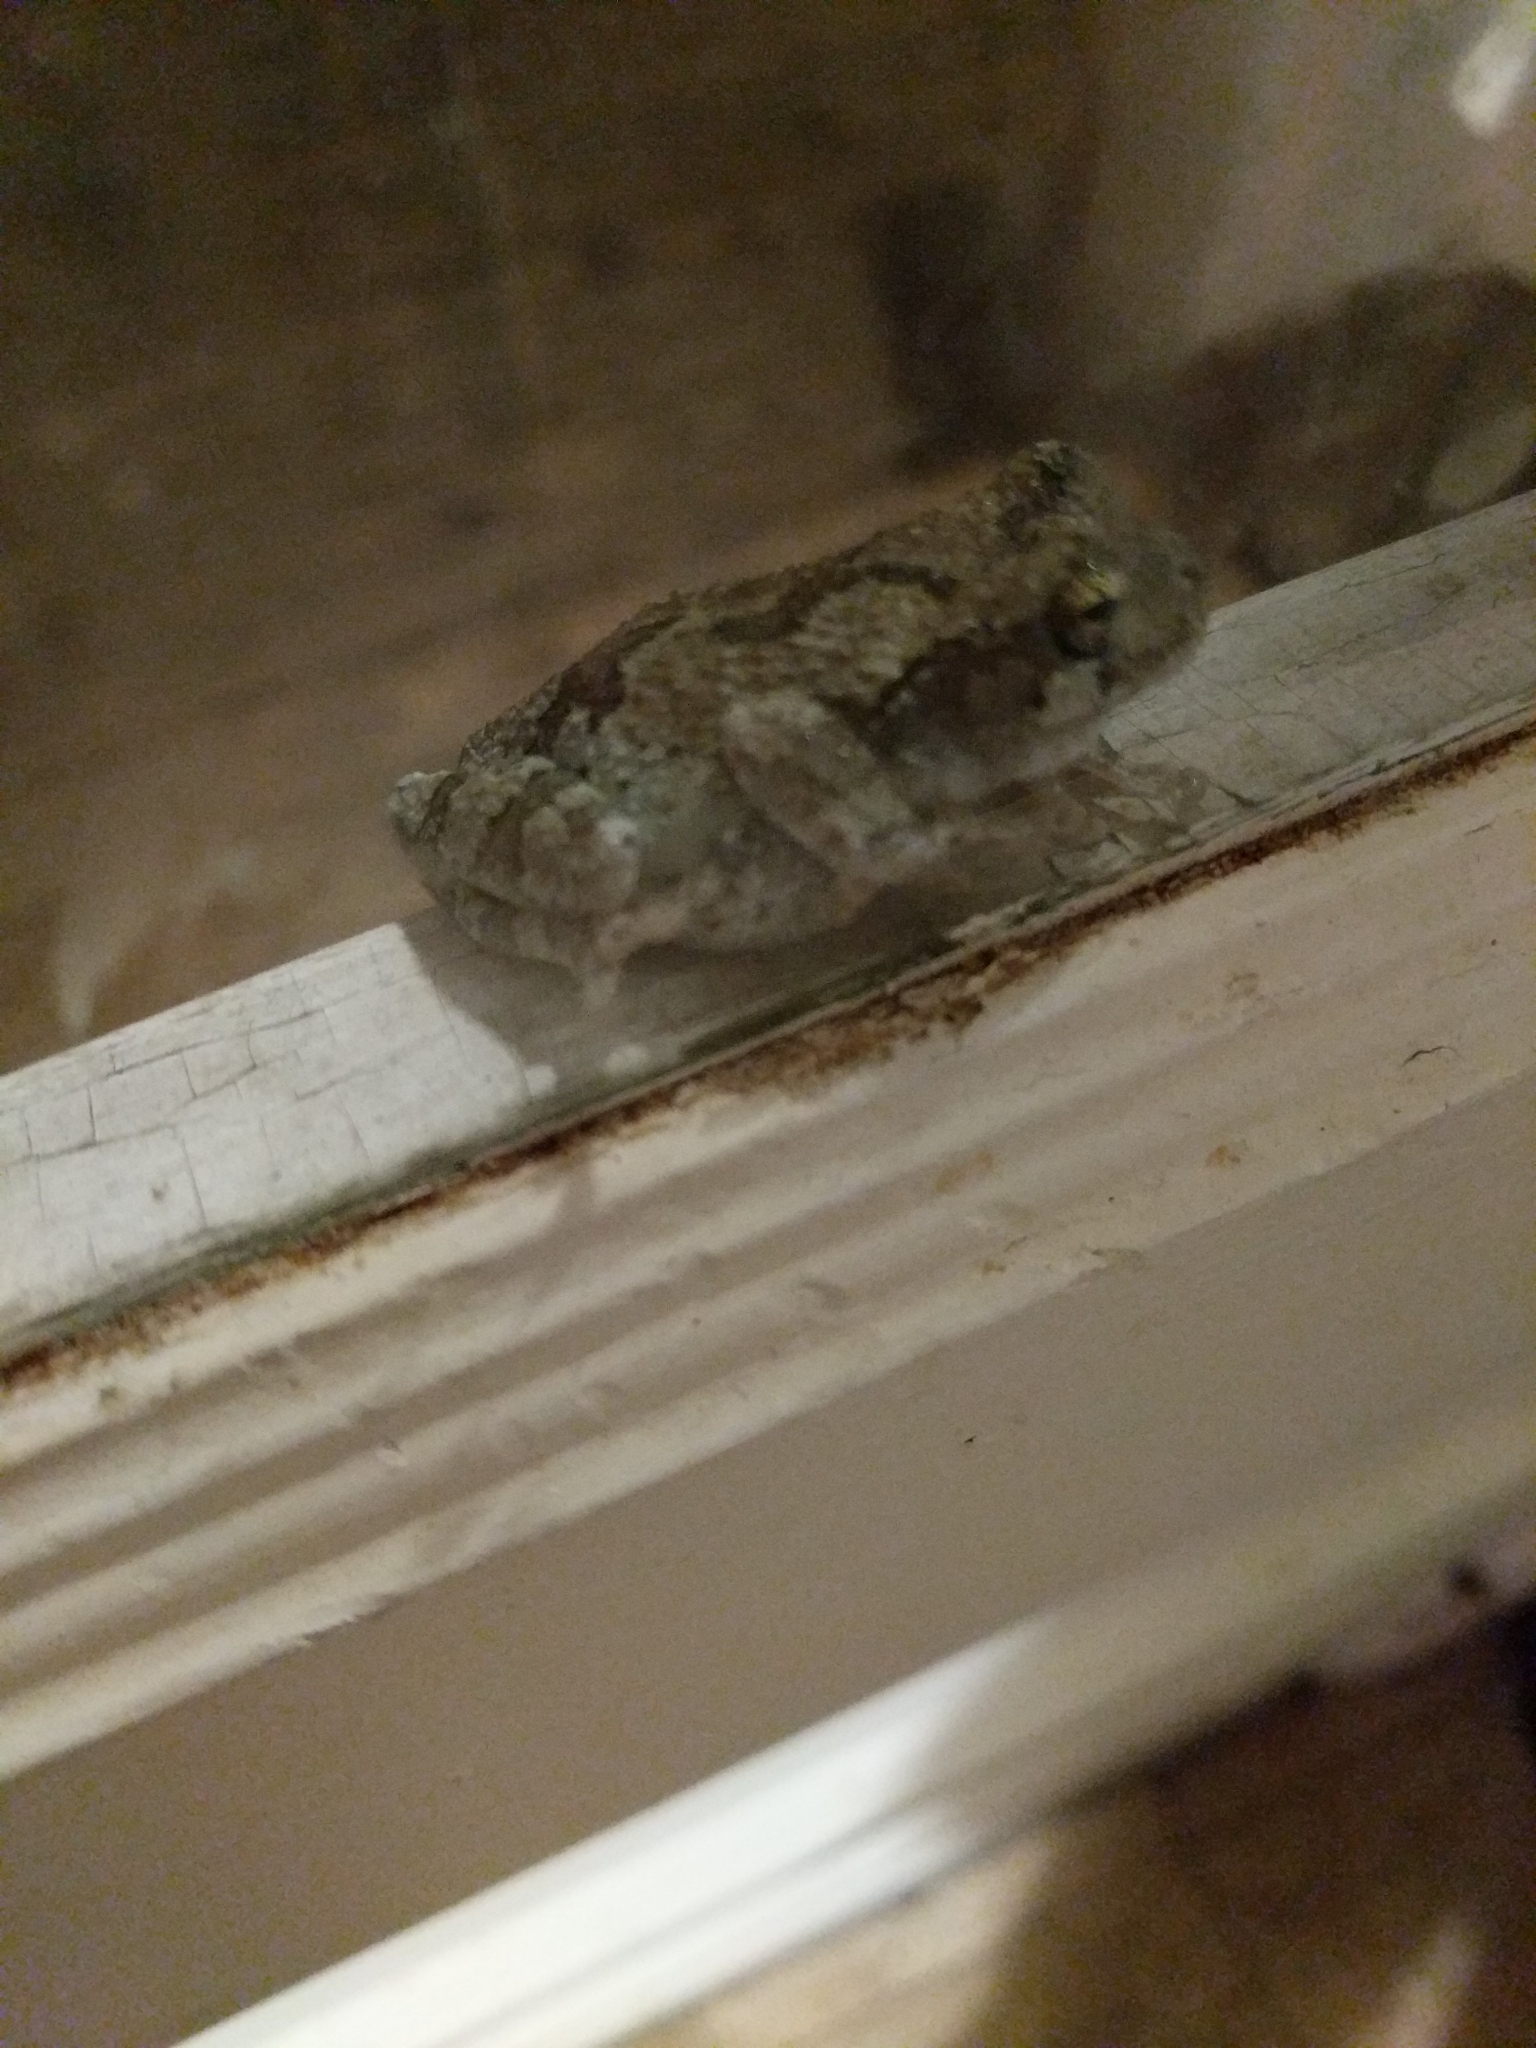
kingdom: Animalia
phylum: Chordata
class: Amphibia
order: Anura
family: Hylidae
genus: Dryophytes
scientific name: Dryophytes chrysoscelis
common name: Cope's gray treefrog
